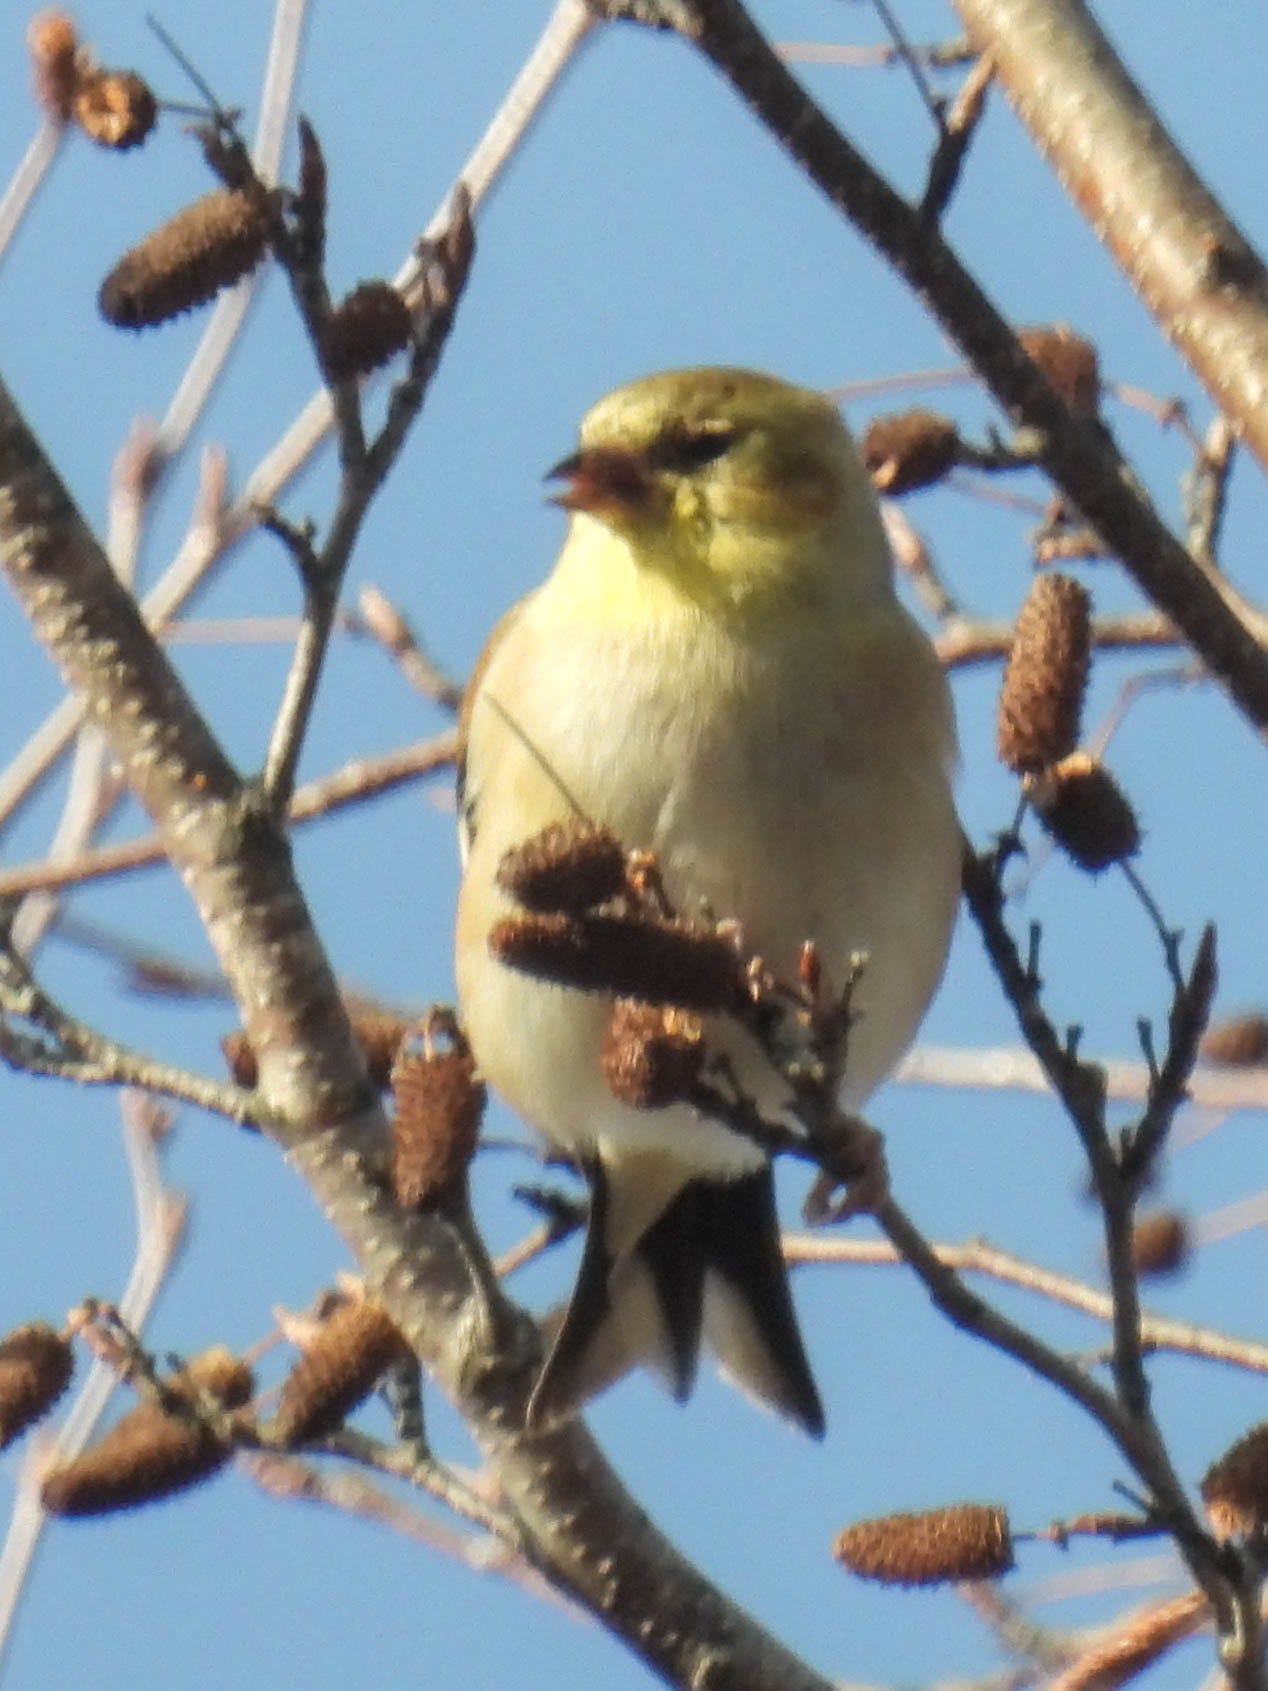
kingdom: Animalia
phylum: Chordata
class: Aves
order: Passeriformes
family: Fringillidae
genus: Spinus
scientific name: Spinus tristis
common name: American goldfinch
